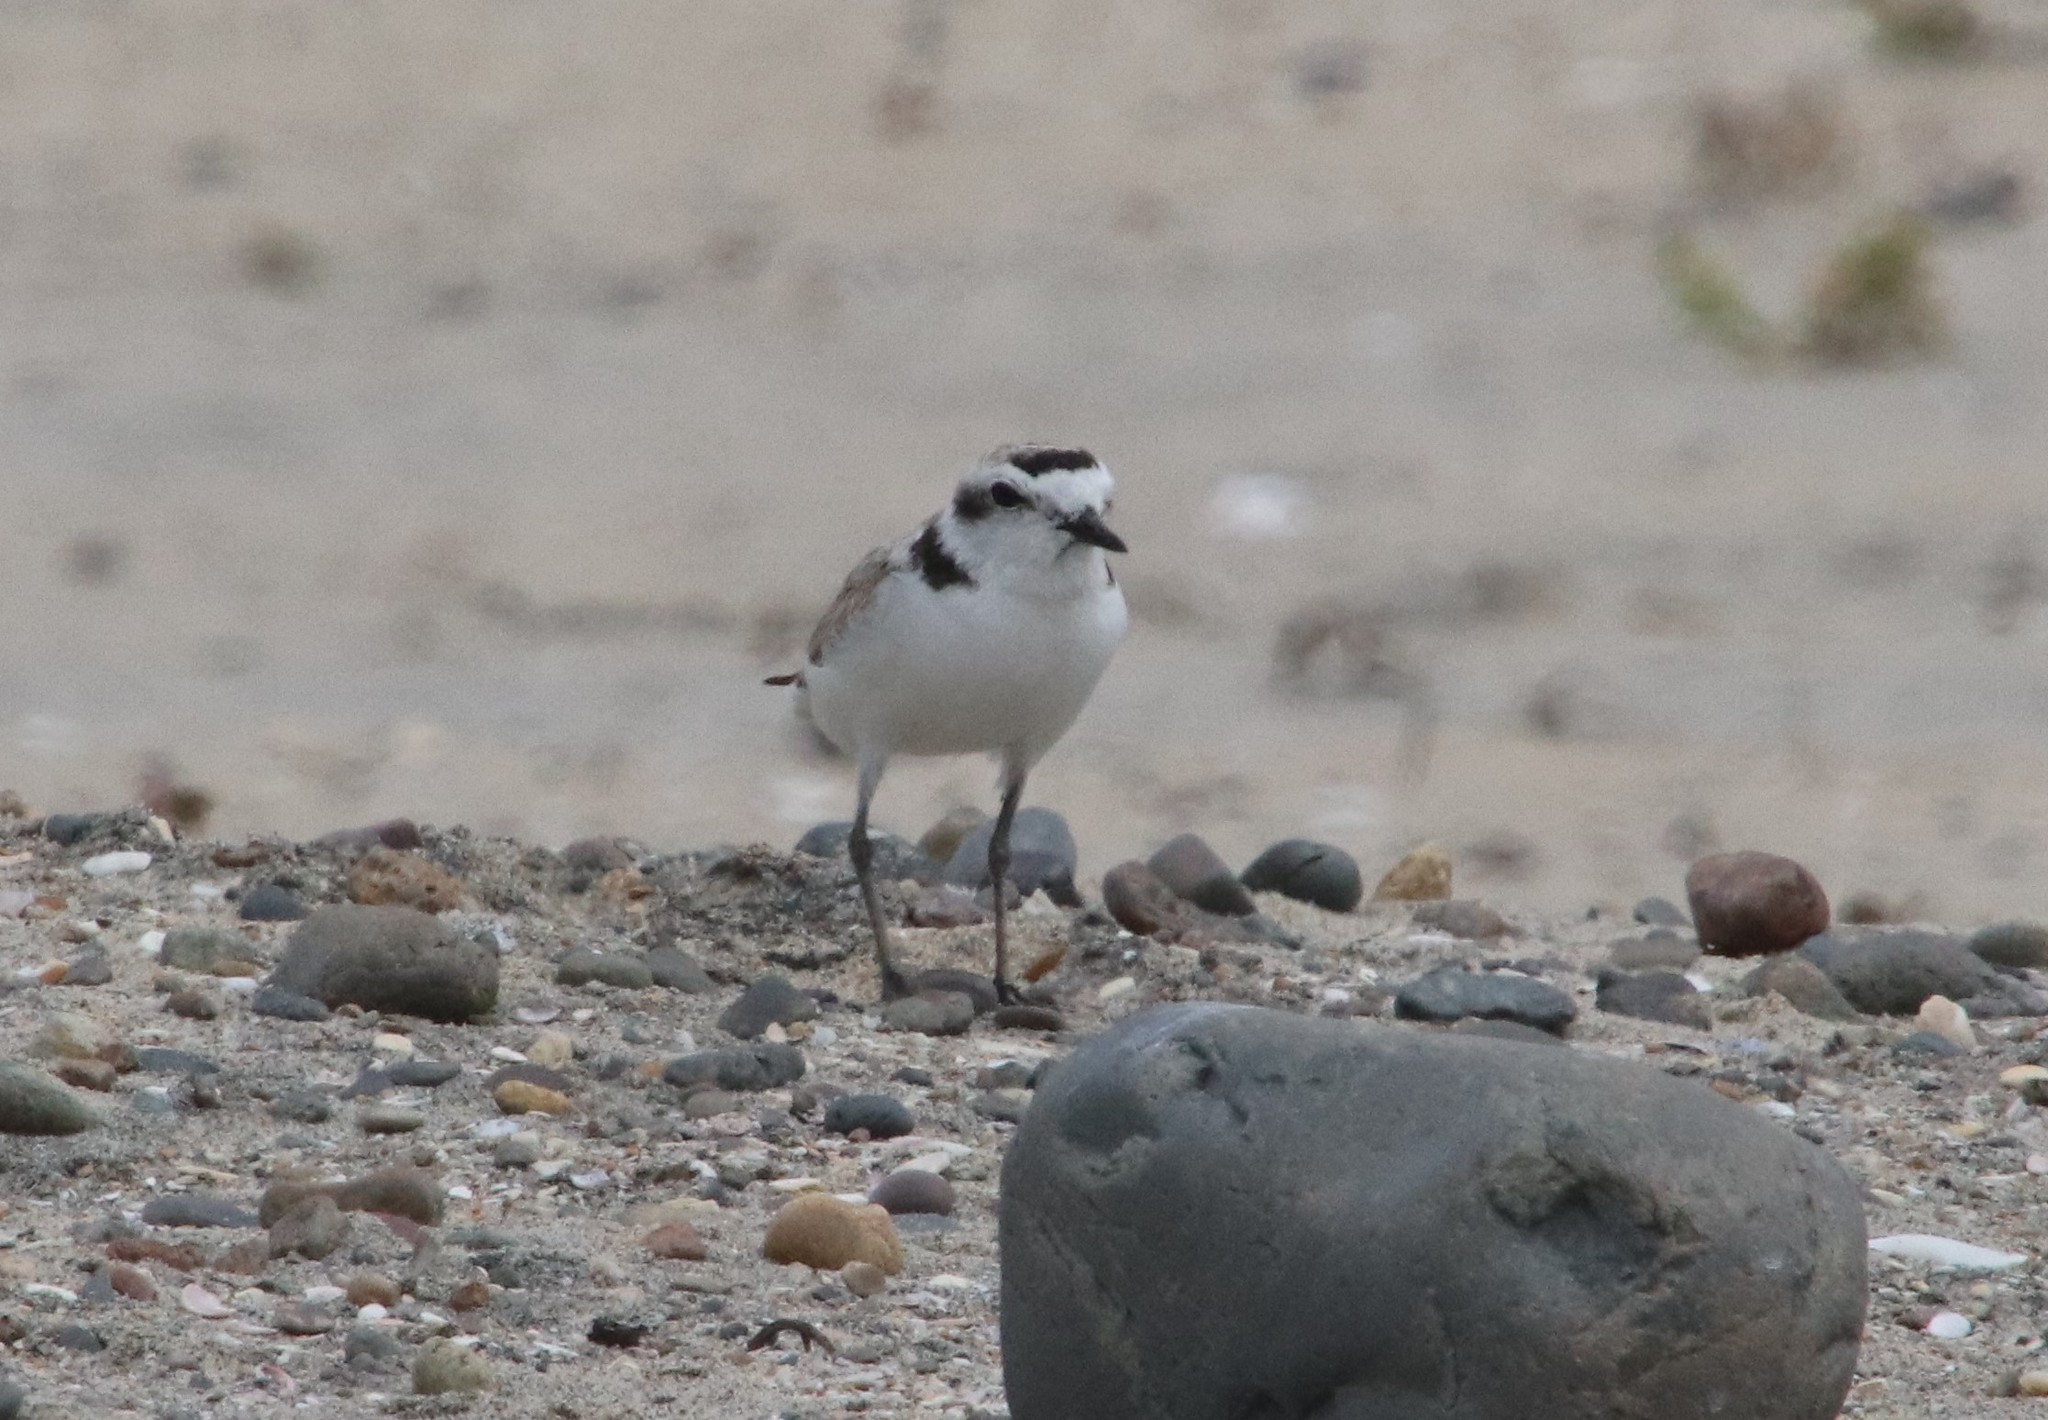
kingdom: Animalia
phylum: Chordata
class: Aves
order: Charadriiformes
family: Charadriidae
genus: Anarhynchus
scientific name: Anarhynchus
